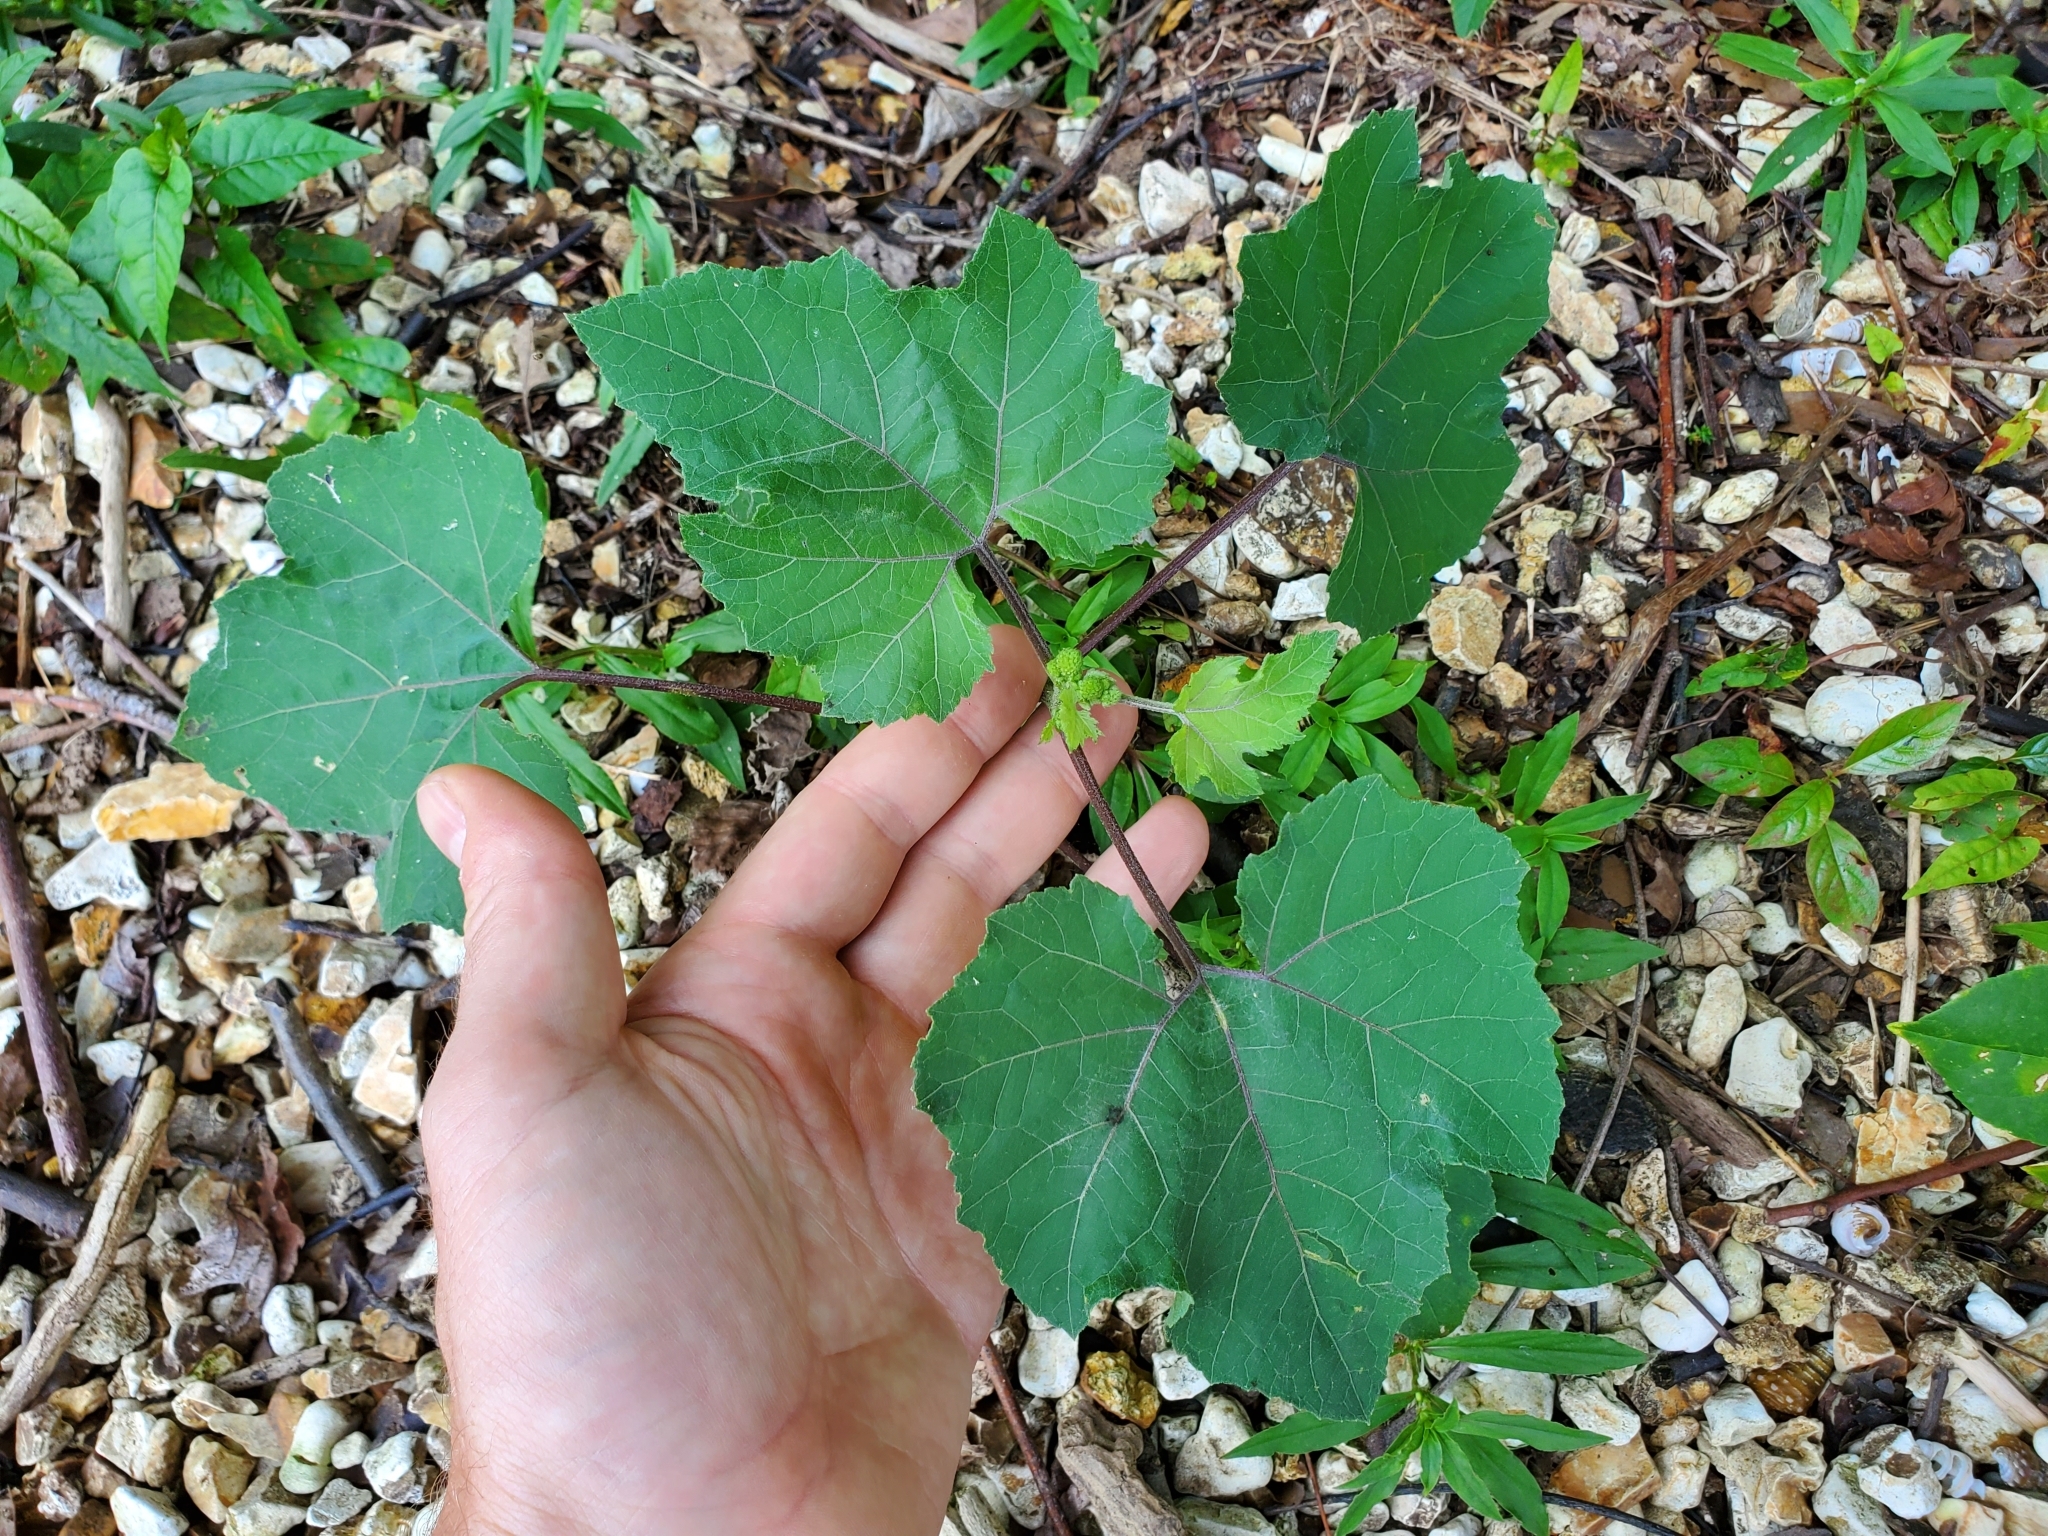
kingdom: Plantae
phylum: Tracheophyta
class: Magnoliopsida
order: Asterales
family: Asteraceae
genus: Xanthium
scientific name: Xanthium strumarium
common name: Rough cocklebur
